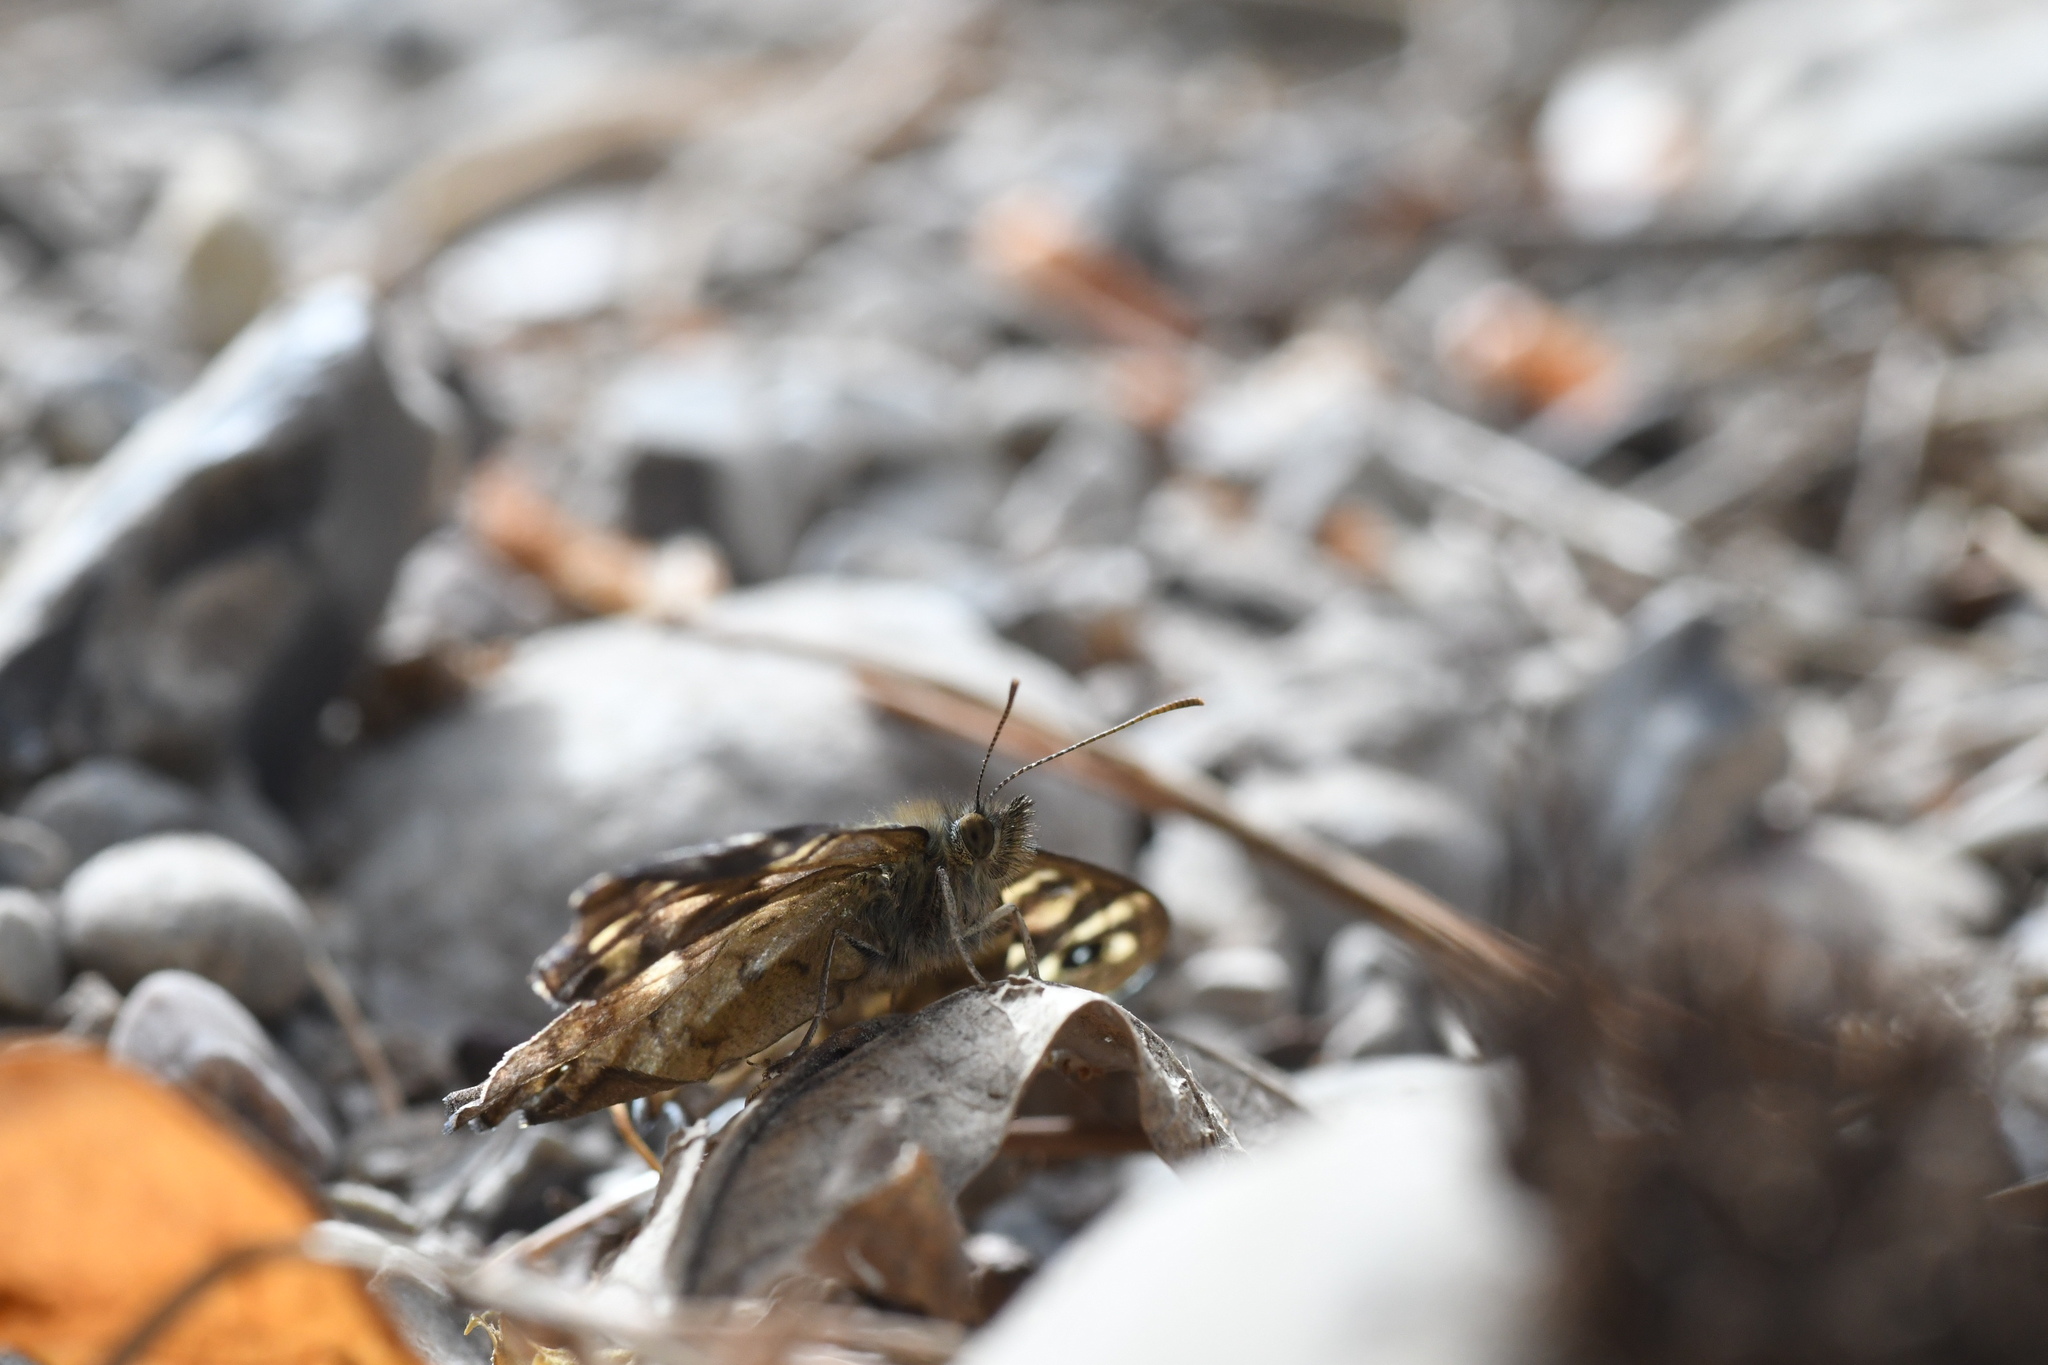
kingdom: Animalia
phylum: Arthropoda
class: Insecta
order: Lepidoptera
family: Nymphalidae
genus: Pararge
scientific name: Pararge aegeria
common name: Speckled wood
